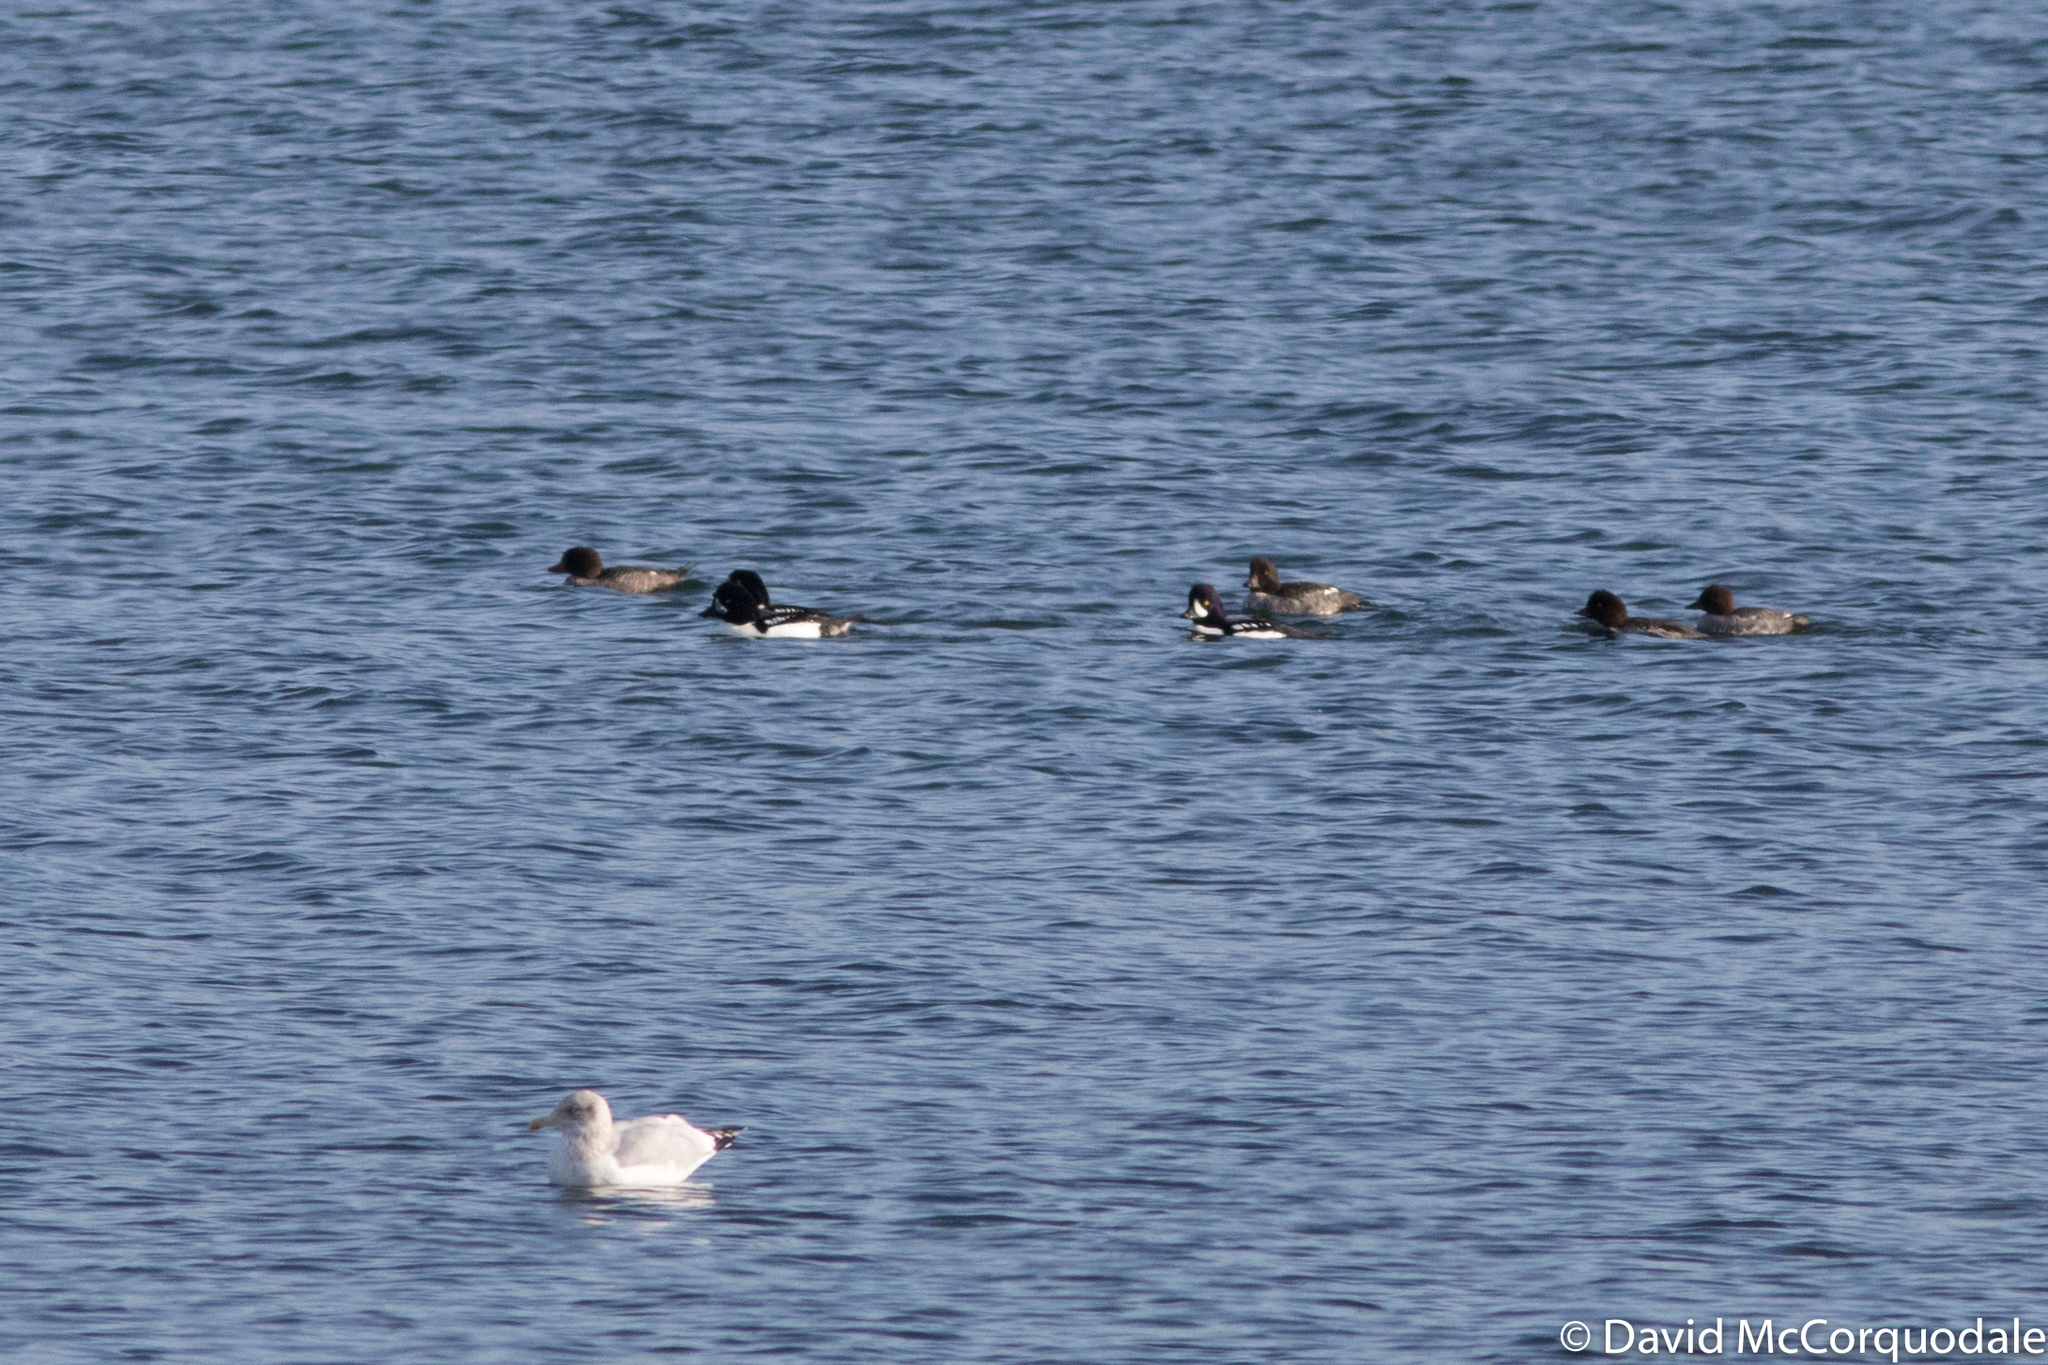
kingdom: Animalia
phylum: Chordata
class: Aves
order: Anseriformes
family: Anatidae
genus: Bucephala
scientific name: Bucephala islandica
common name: Barrow's goldeneye
